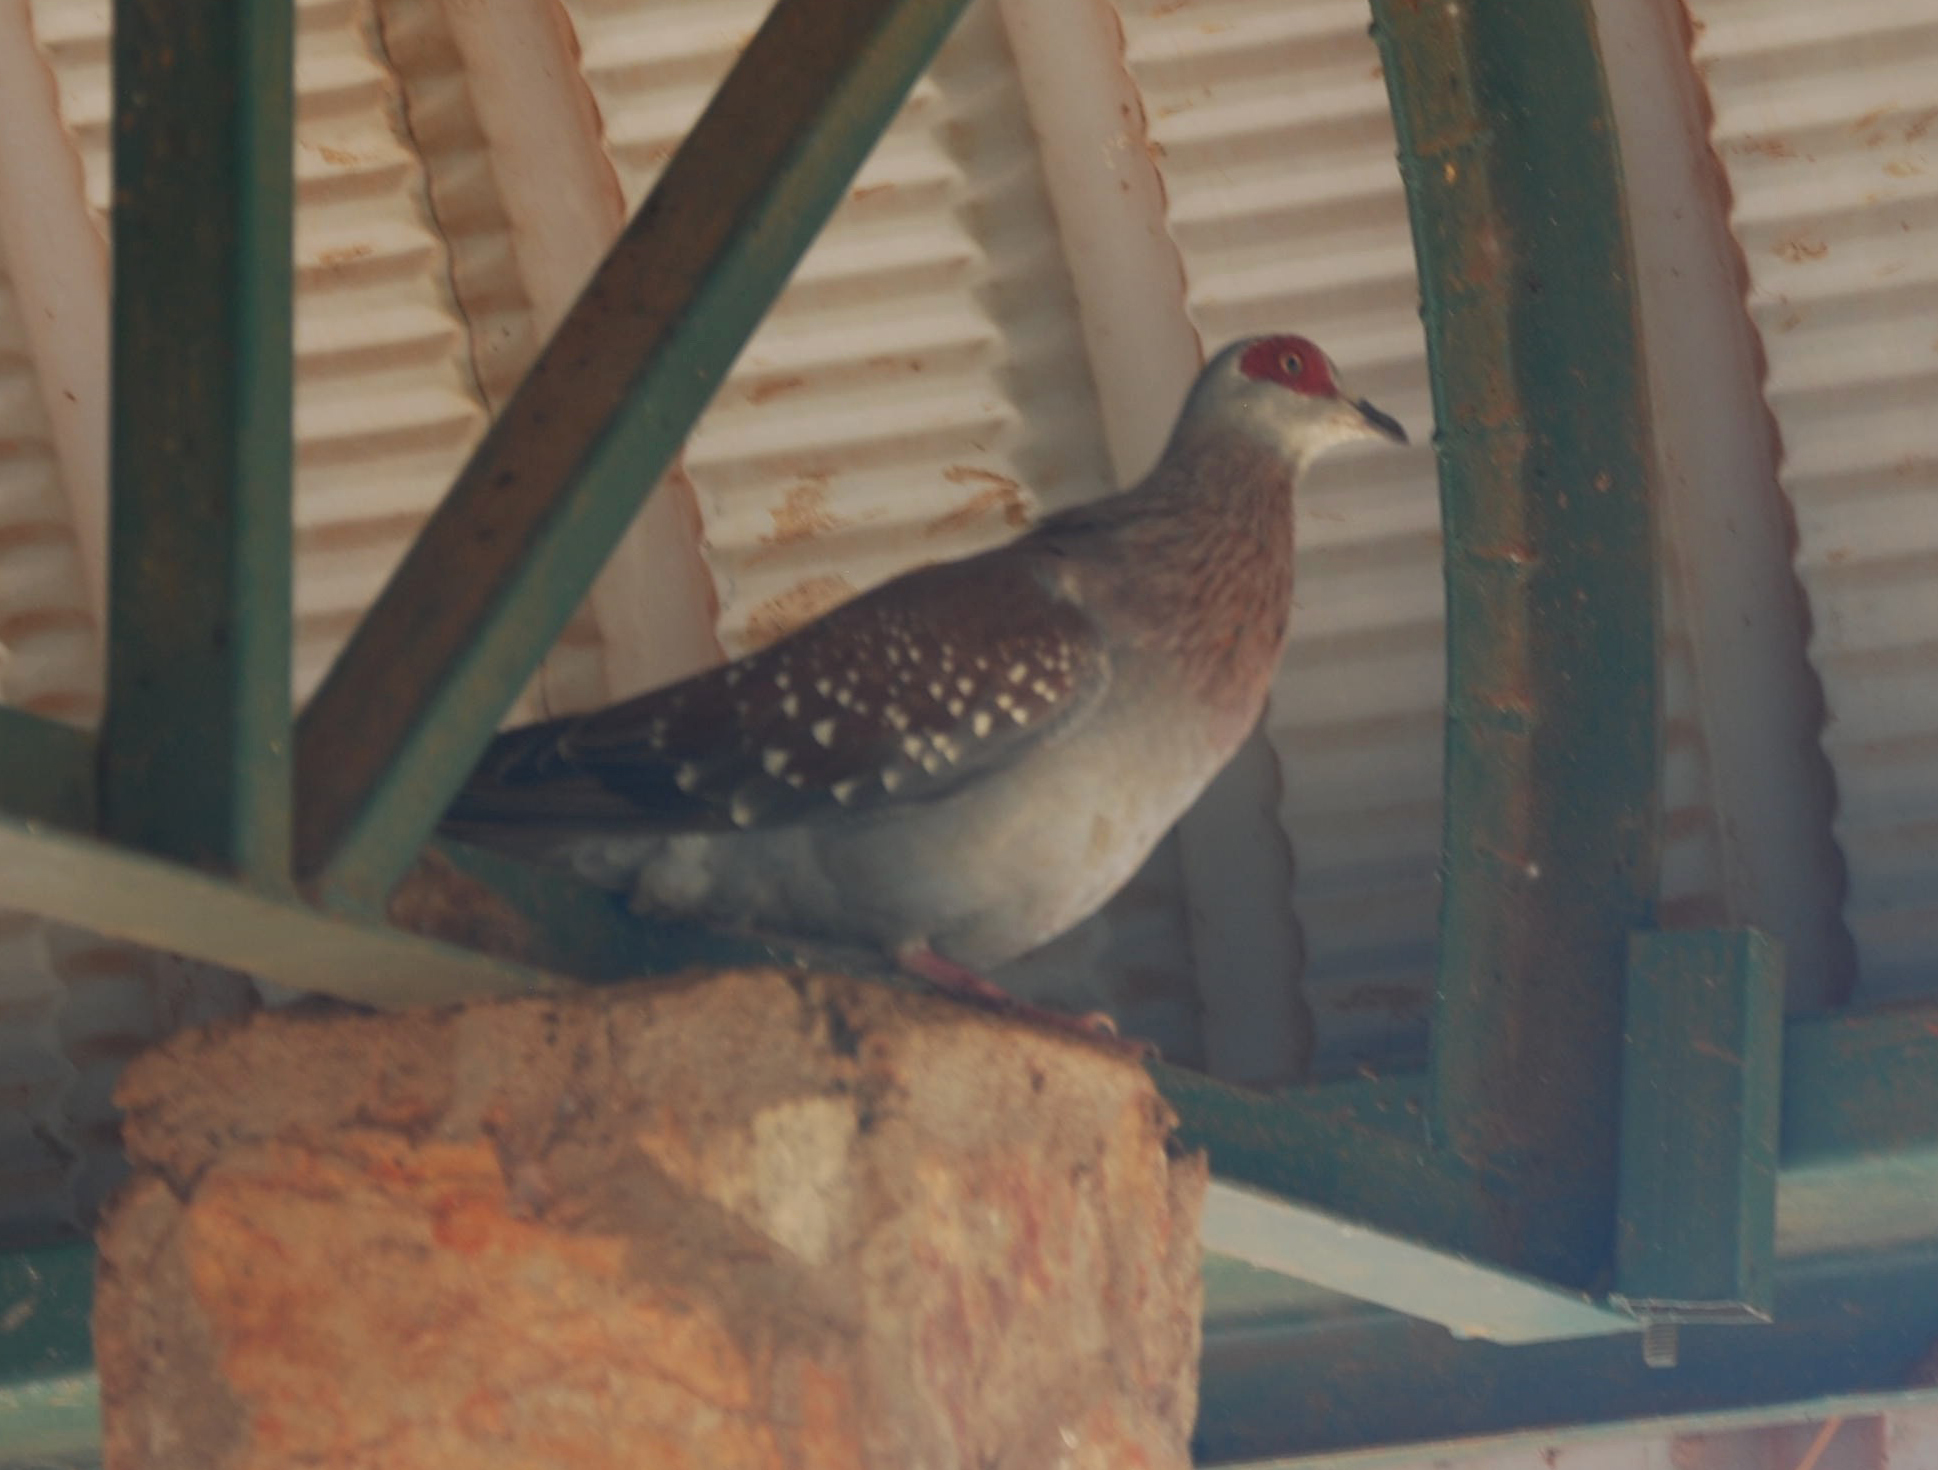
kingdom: Animalia
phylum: Chordata
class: Aves
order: Columbiformes
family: Columbidae
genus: Columba
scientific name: Columba guinea
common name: Speckled pigeon
